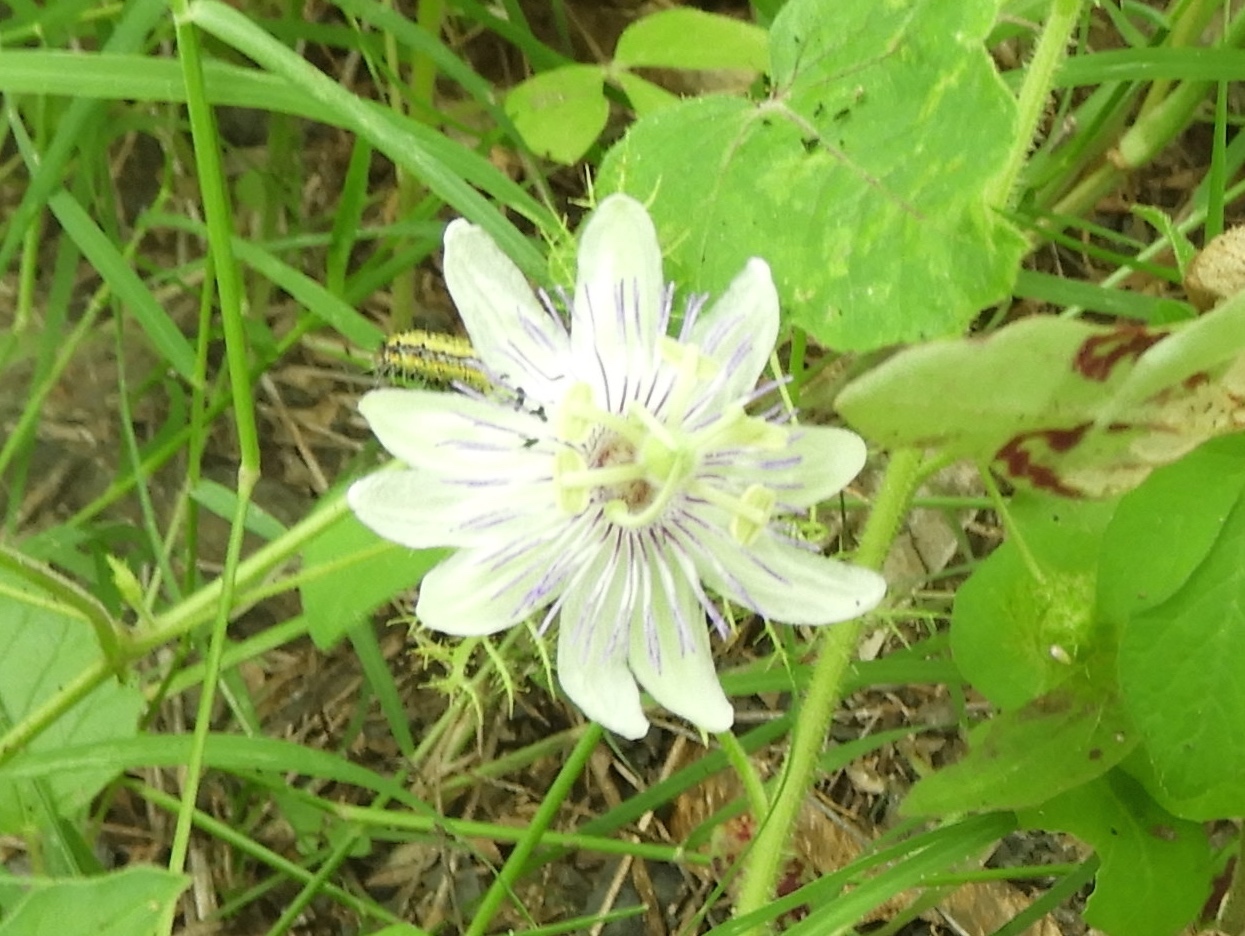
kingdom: Plantae
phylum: Tracheophyta
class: Magnoliopsida
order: Malpighiales
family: Passifloraceae
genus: Passiflora
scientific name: Passiflora foetida
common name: Fetid passionflower
